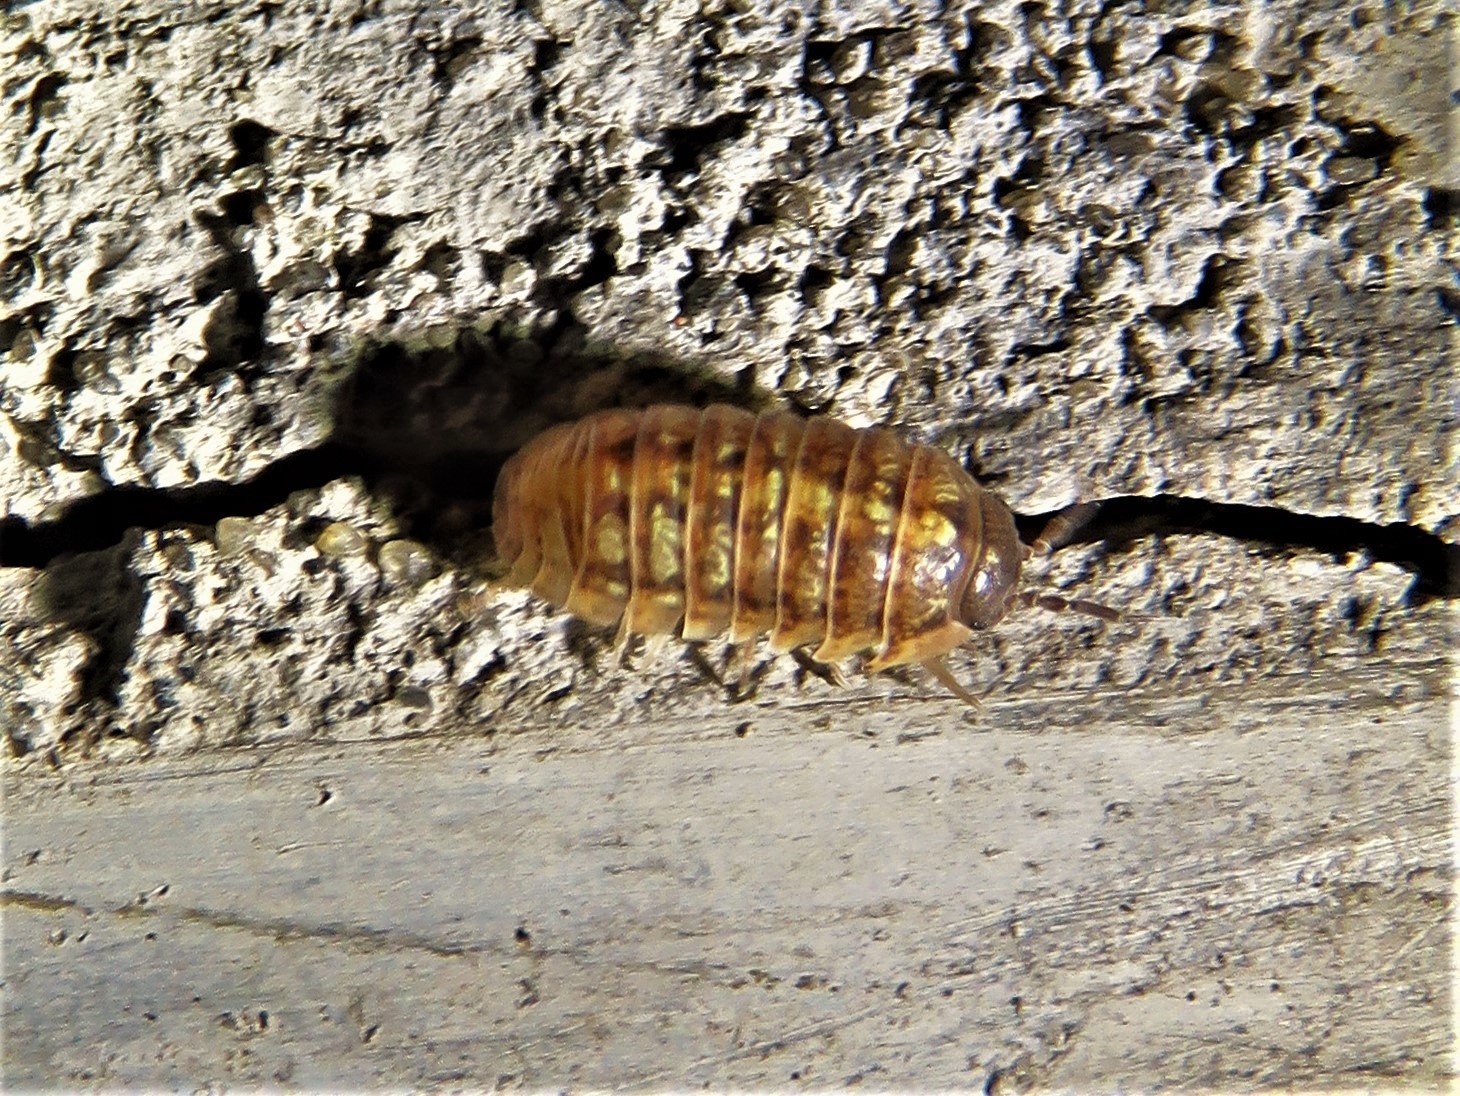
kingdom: Animalia
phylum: Arthropoda
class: Malacostraca
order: Isopoda
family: Armadillidiidae
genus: Armadillidium
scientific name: Armadillidium vulgare
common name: Common pill woodlouse
